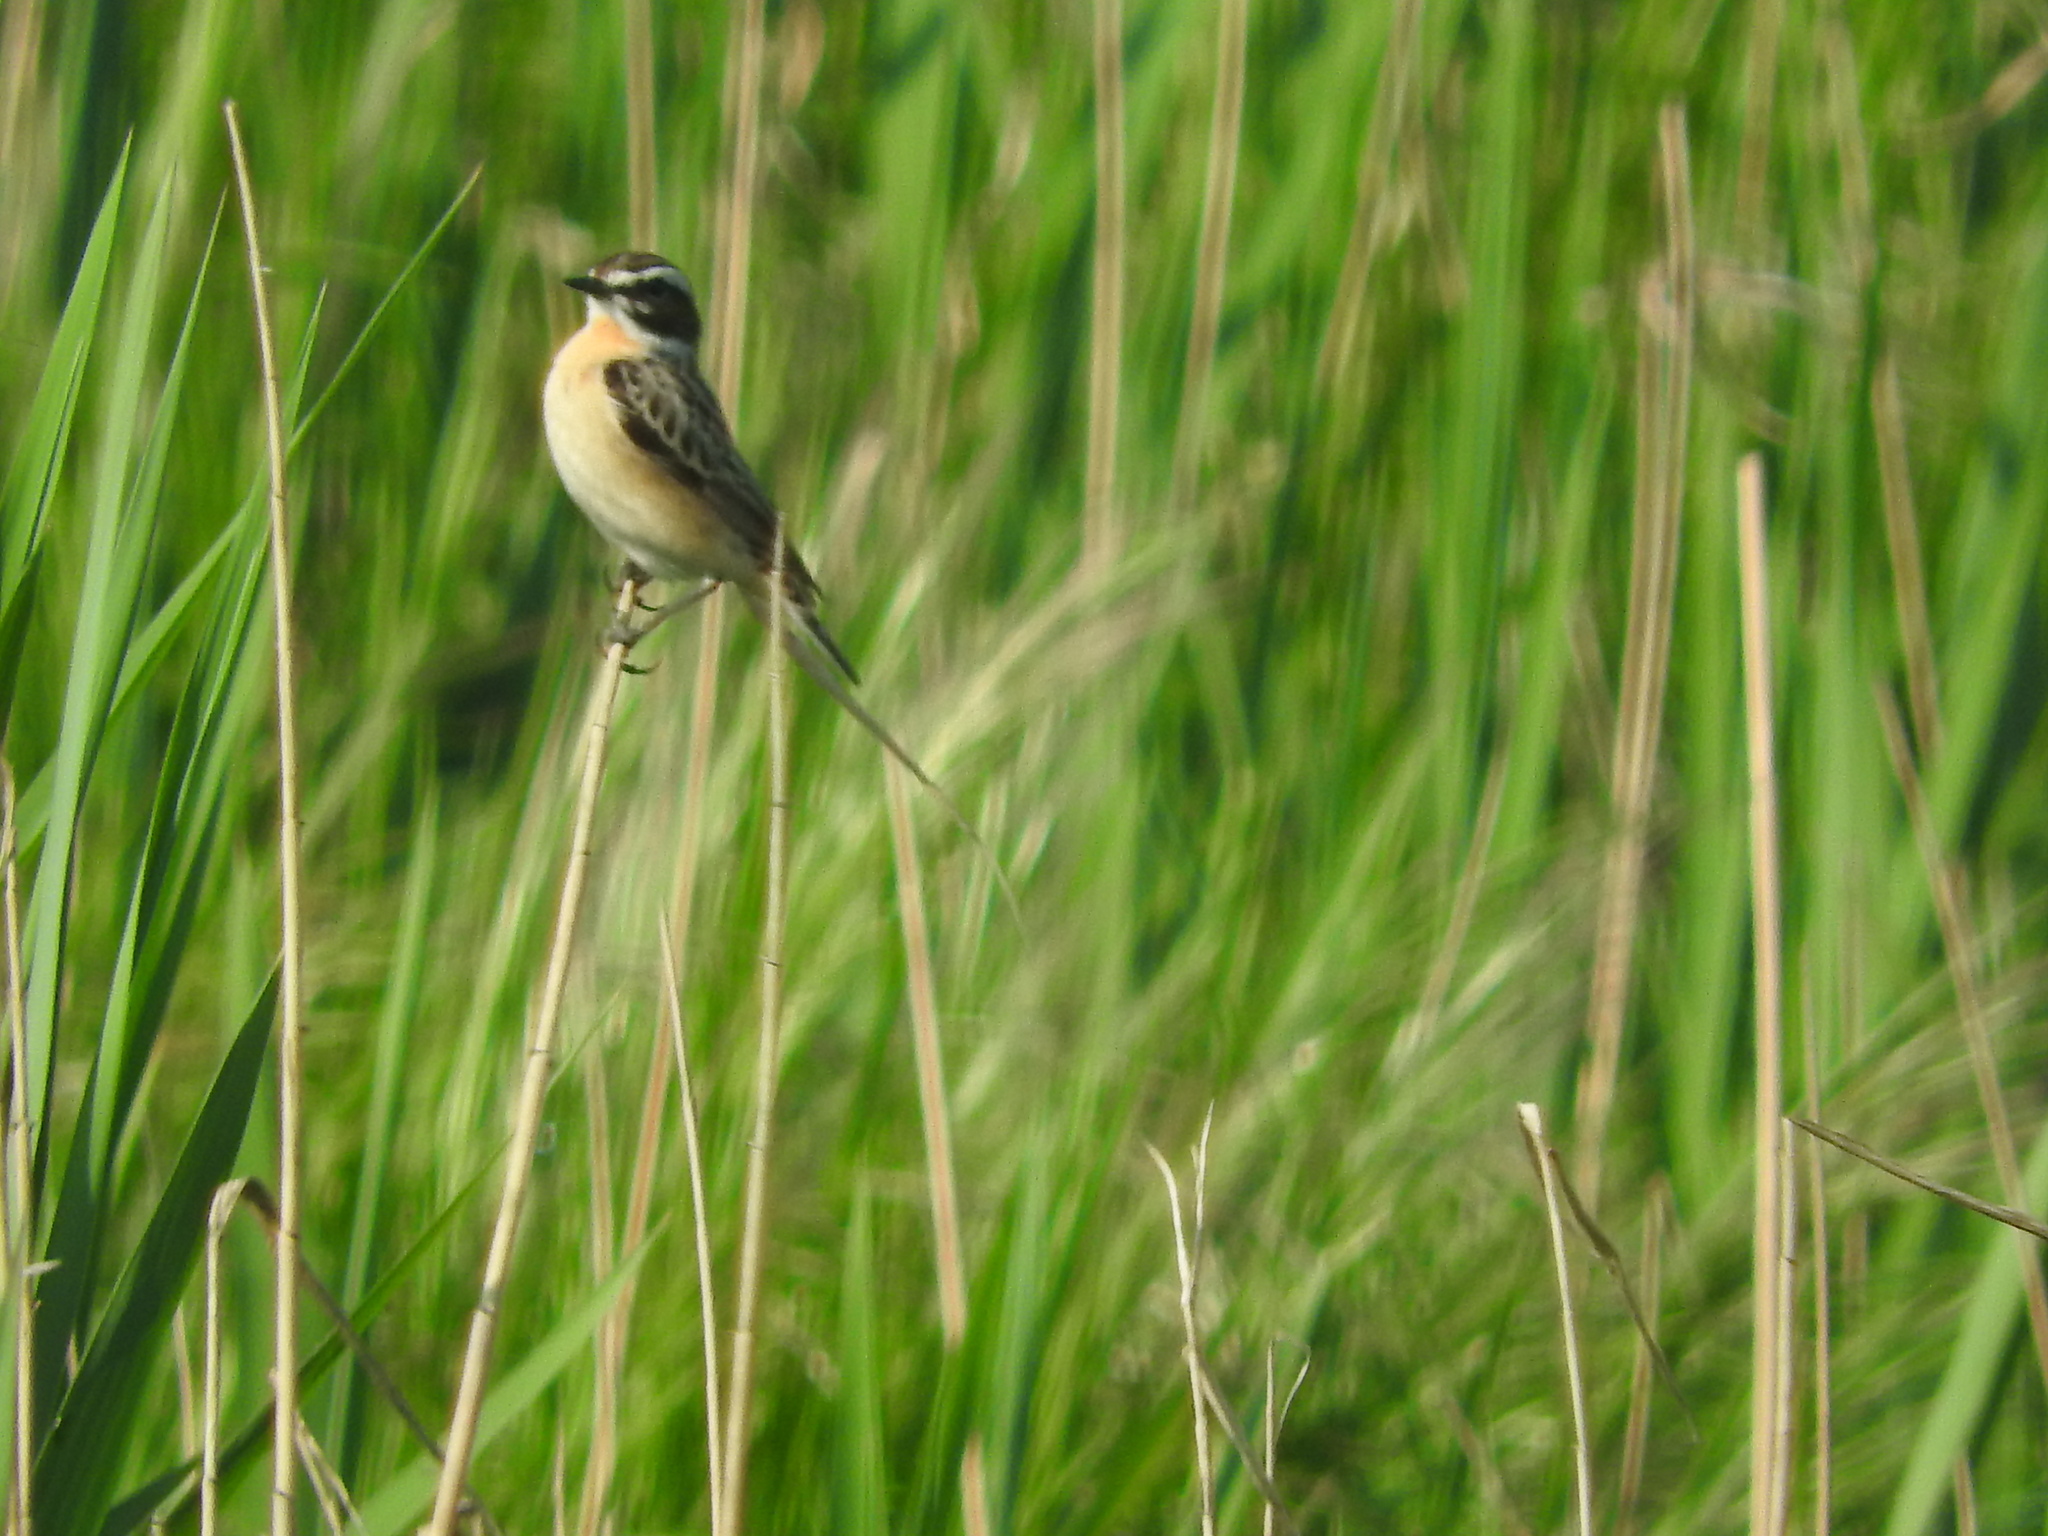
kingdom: Animalia
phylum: Chordata
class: Aves
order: Passeriformes
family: Muscicapidae
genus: Saxicola
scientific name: Saxicola rubetra
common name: Whinchat
